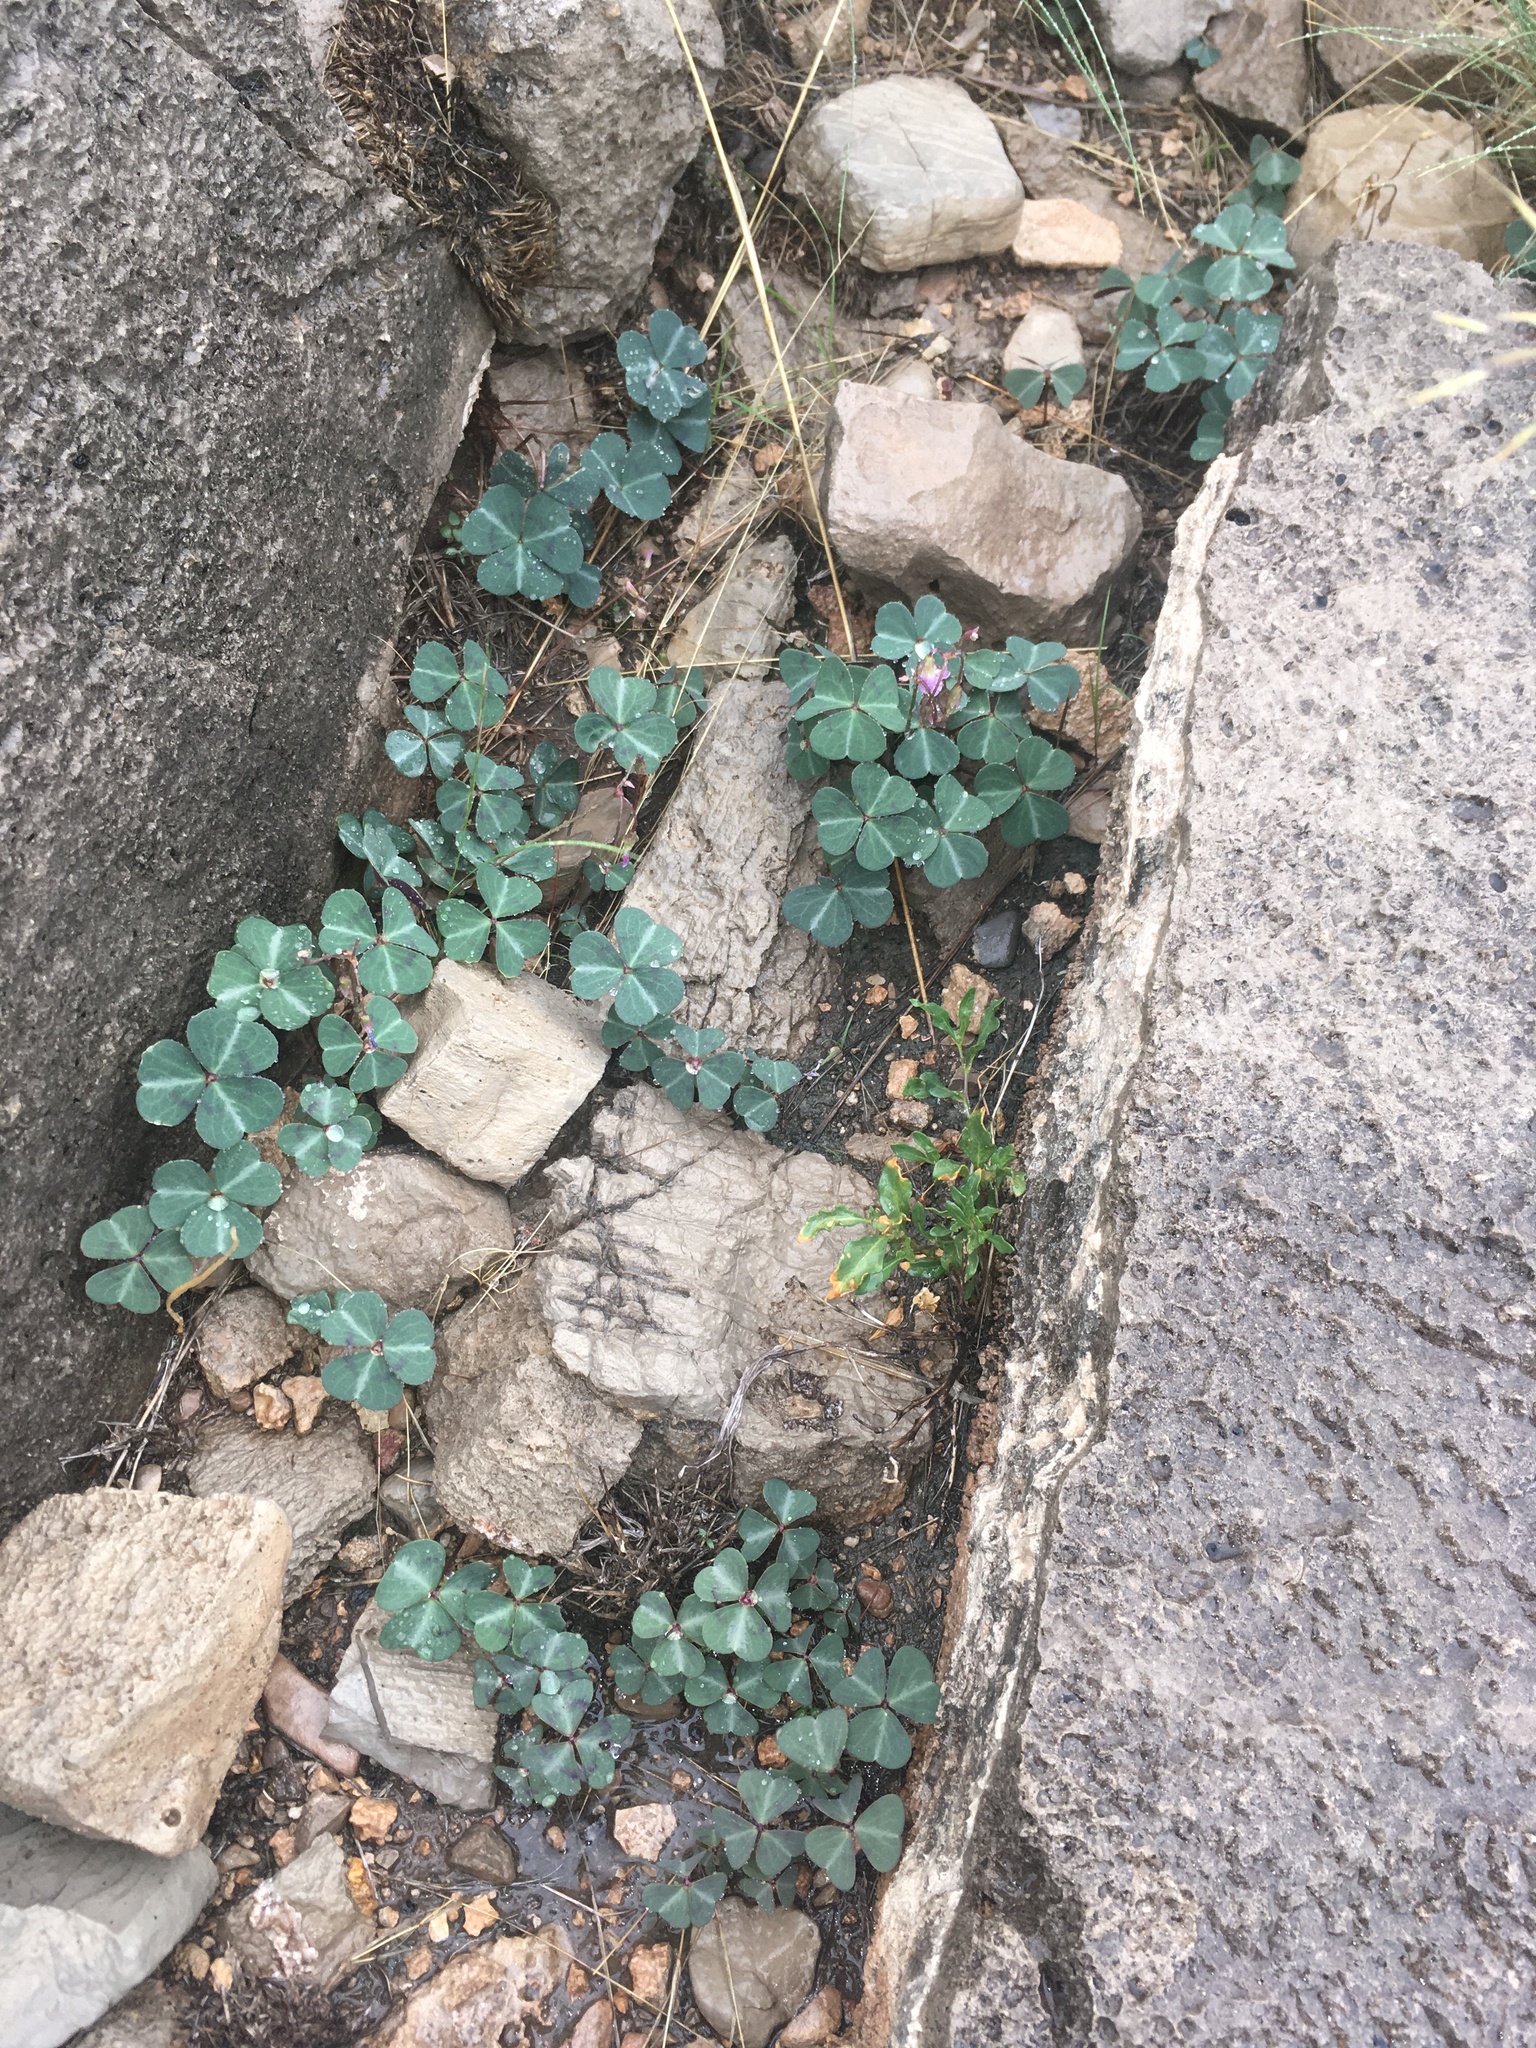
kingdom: Plantae
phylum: Tracheophyta
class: Magnoliopsida
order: Oxalidales
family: Oxalidaceae
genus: Oxalis
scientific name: Oxalis metcalfei
